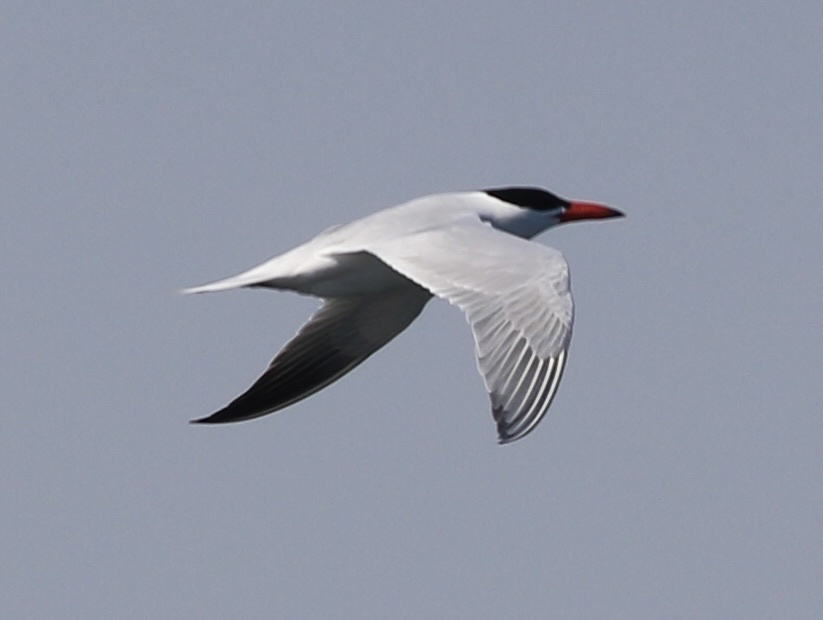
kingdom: Animalia
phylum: Chordata
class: Aves
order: Charadriiformes
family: Laridae
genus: Hydroprogne
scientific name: Hydroprogne caspia
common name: Caspian tern
